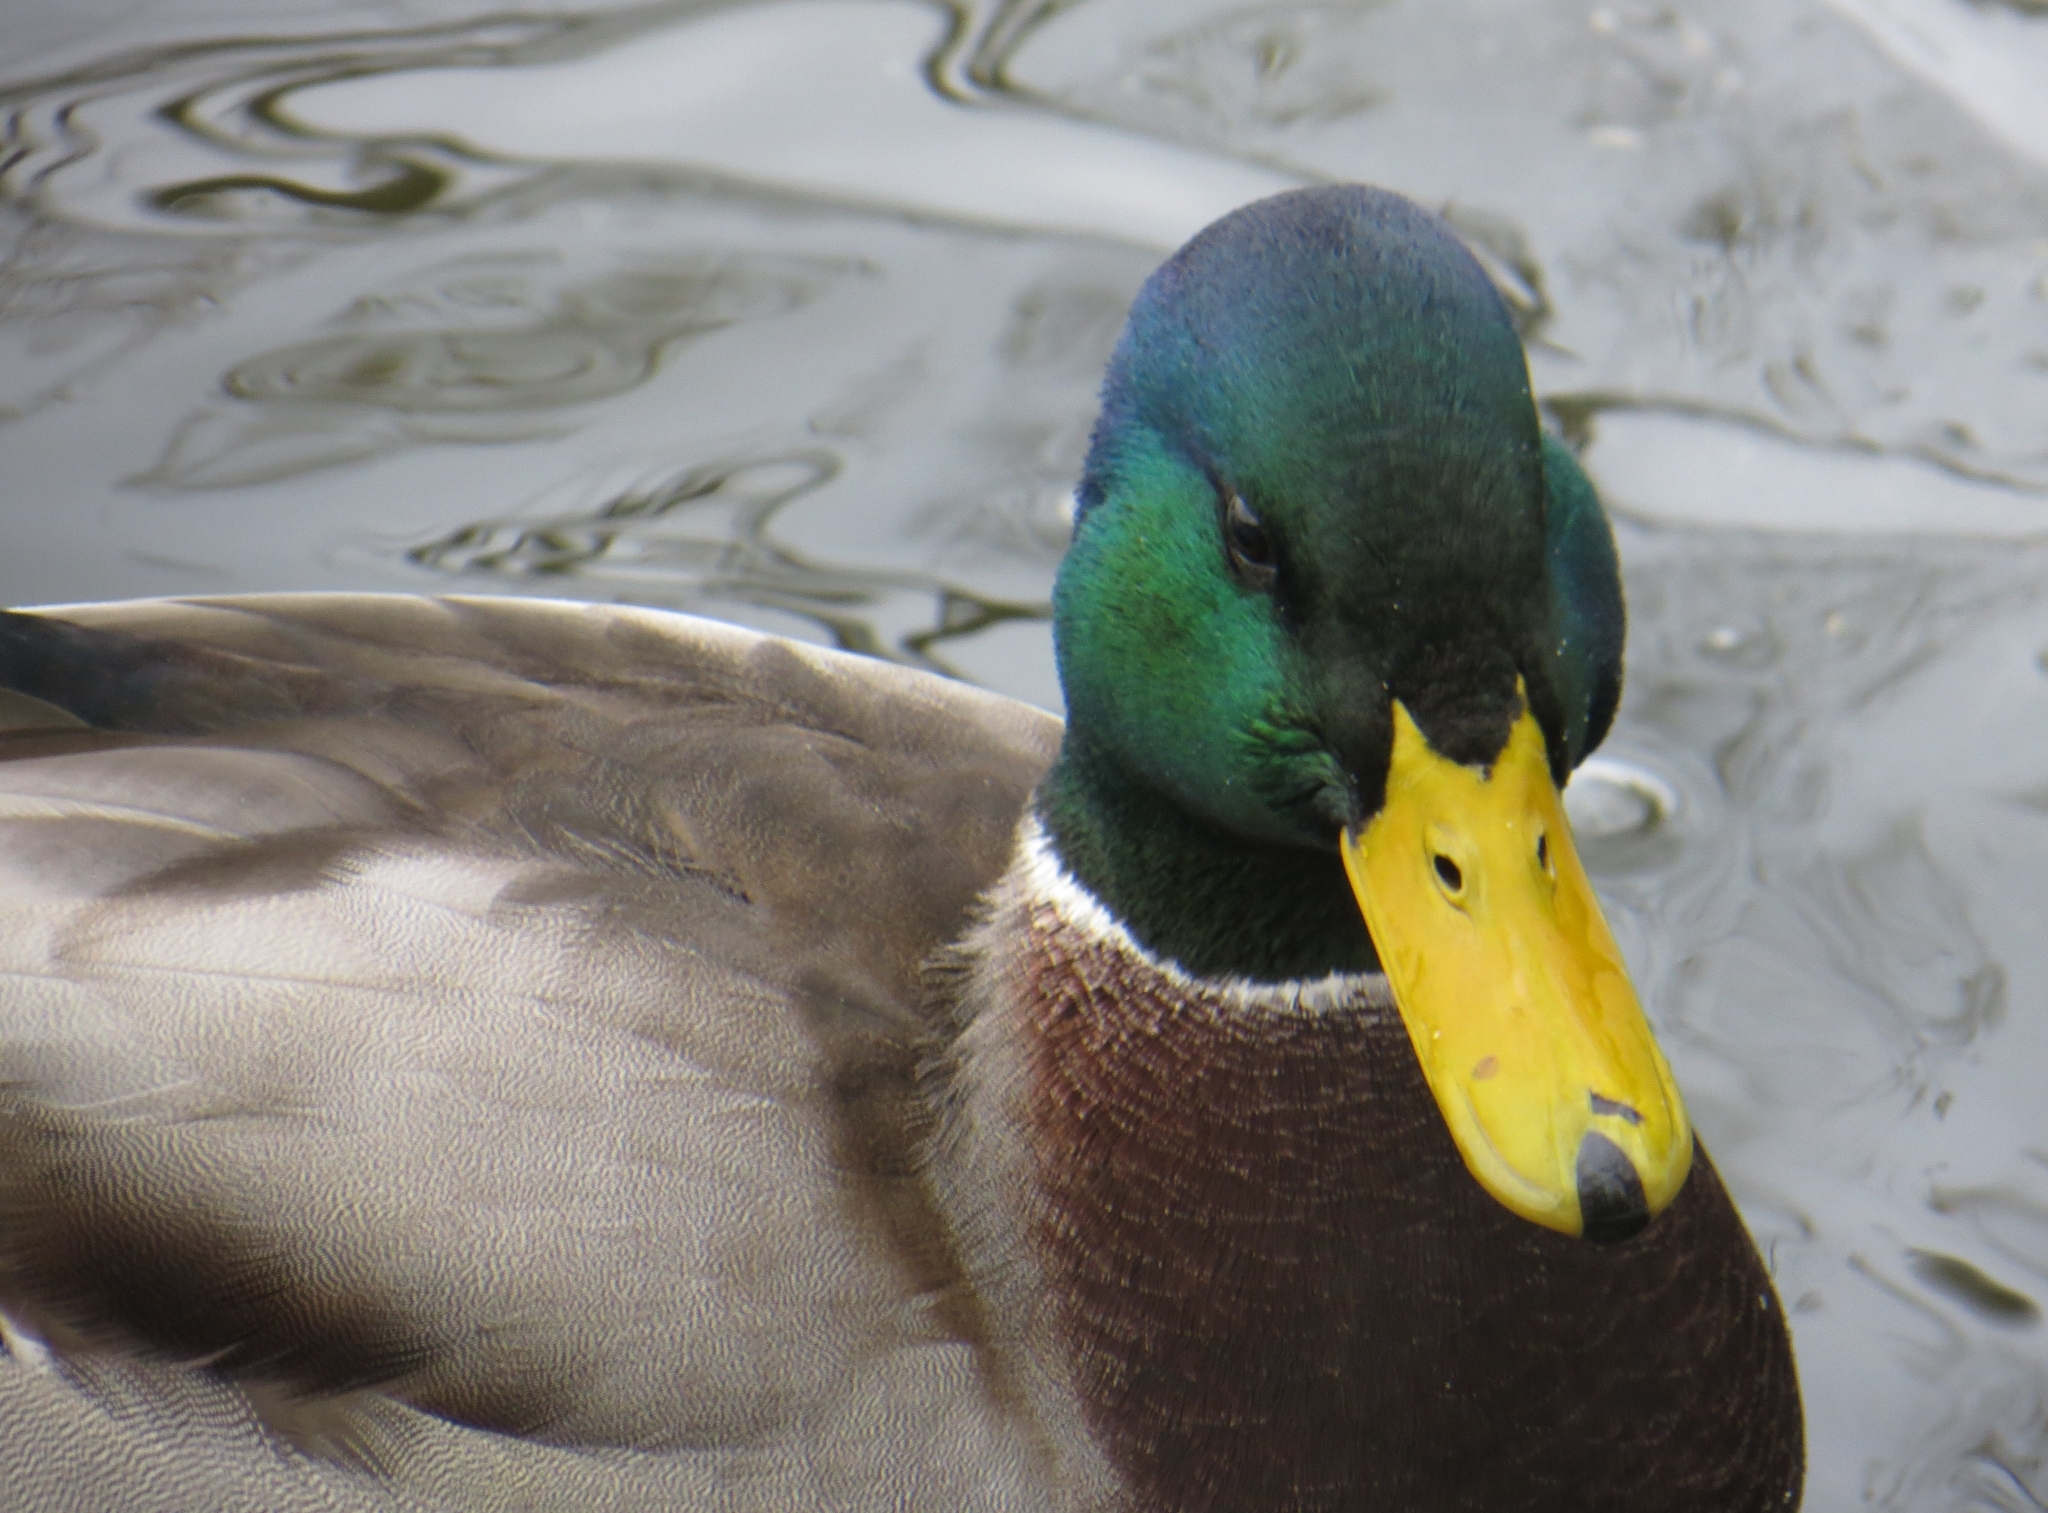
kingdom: Animalia
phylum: Chordata
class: Aves
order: Anseriformes
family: Anatidae
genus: Anas
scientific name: Anas platyrhynchos
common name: Mallard
